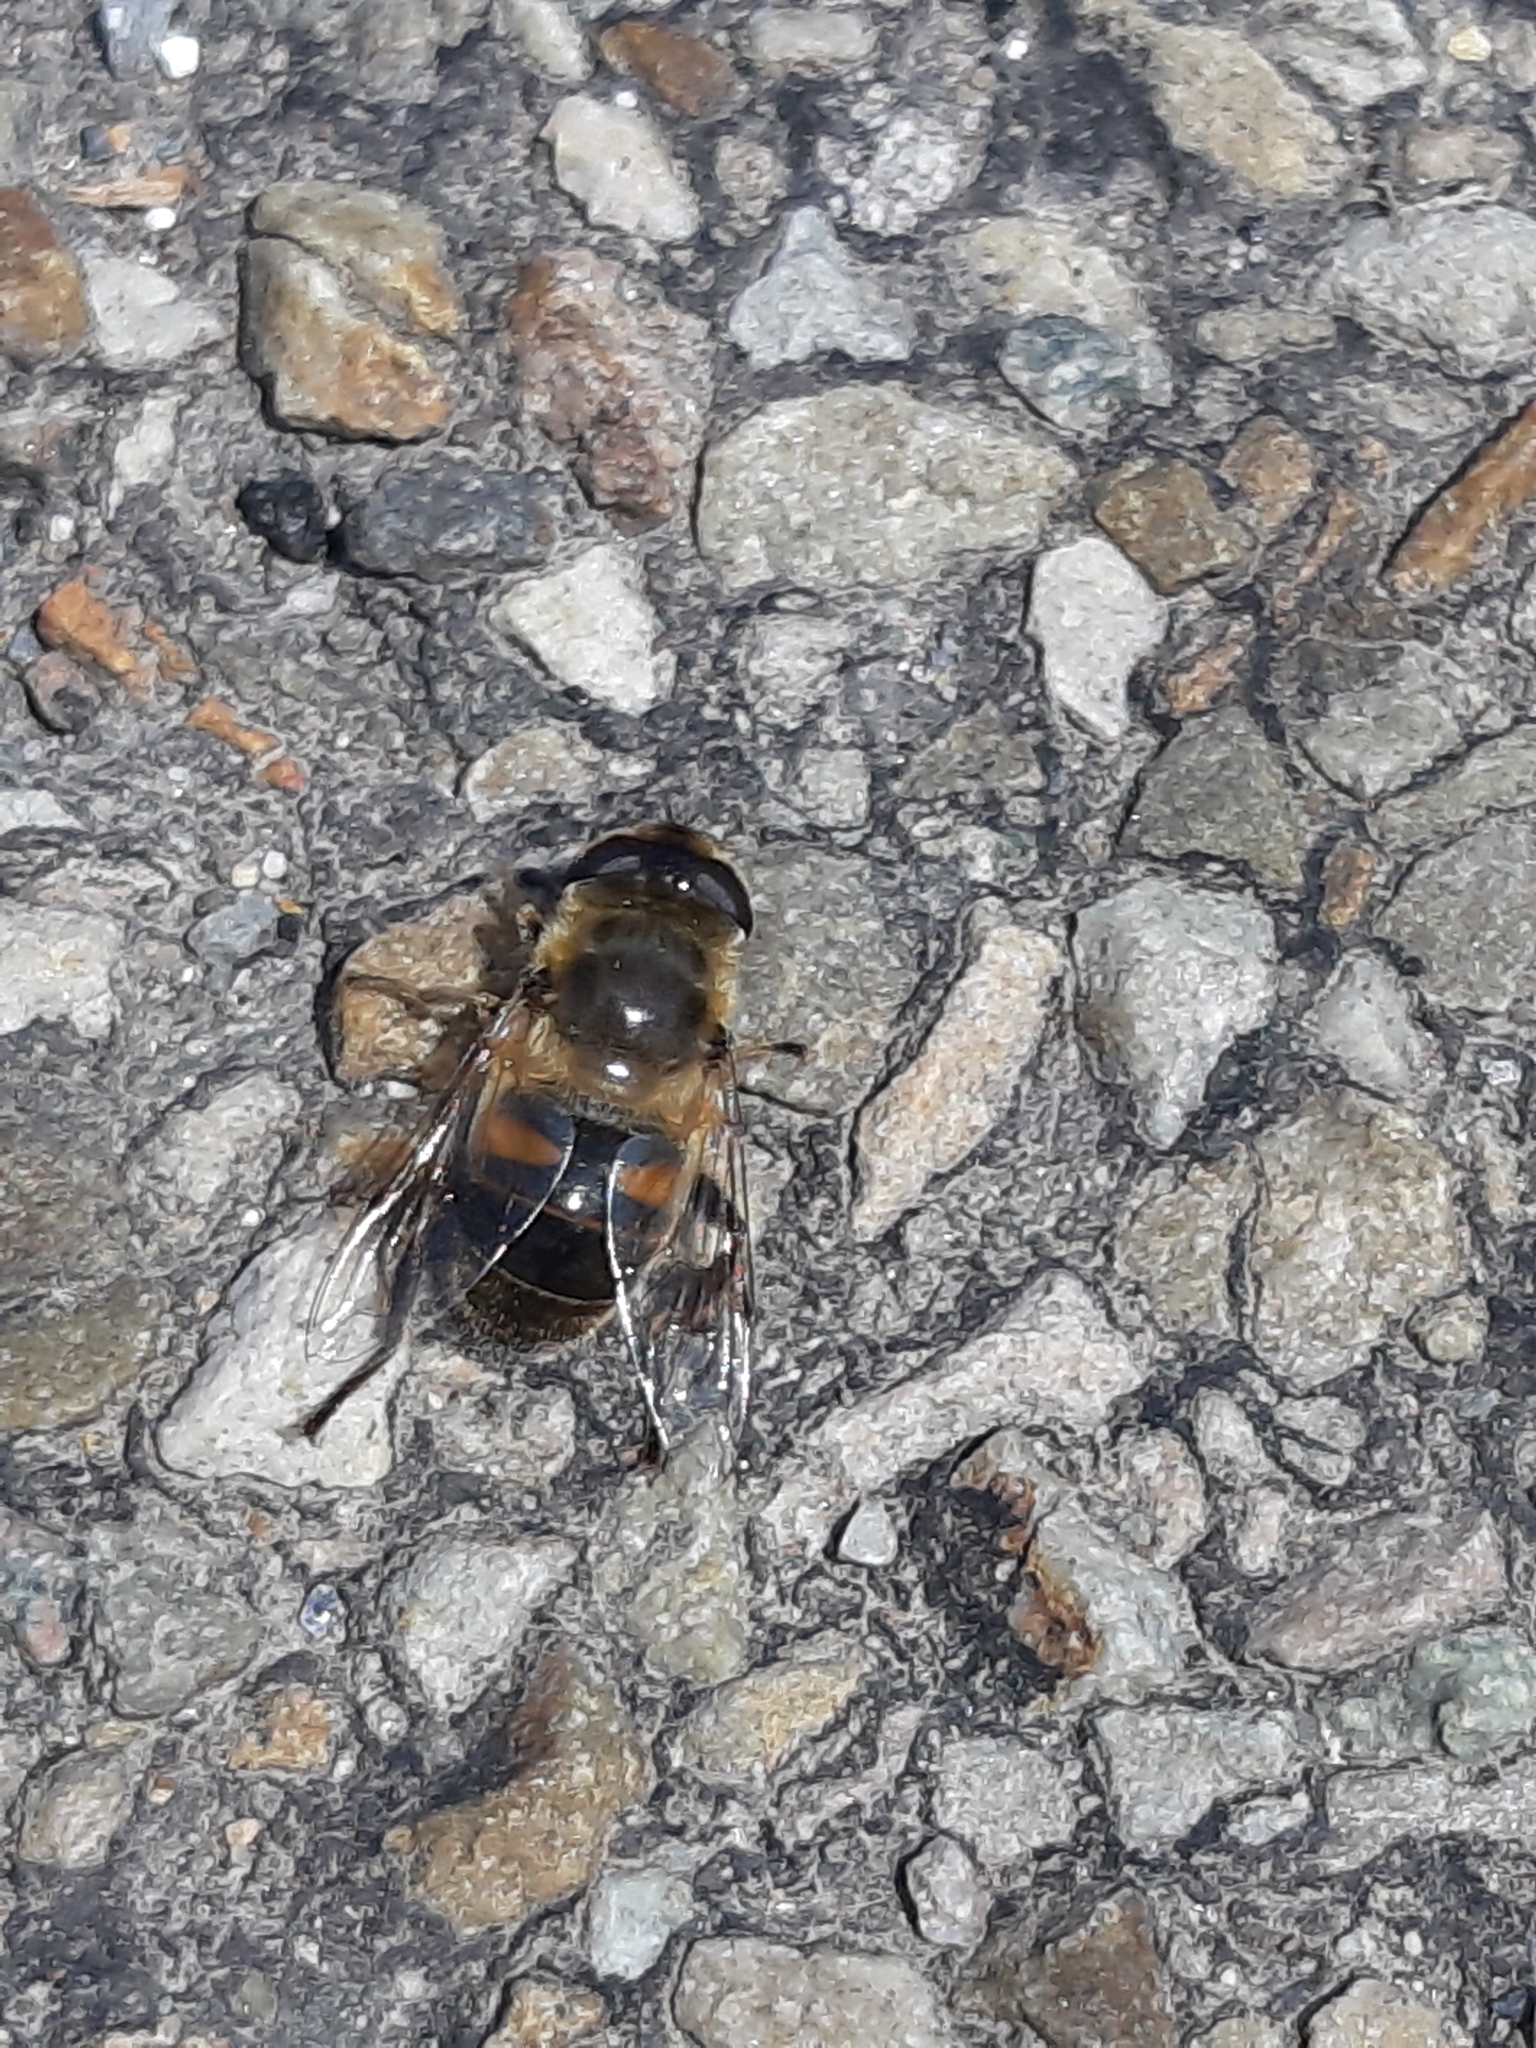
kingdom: Animalia
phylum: Arthropoda
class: Insecta
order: Diptera
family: Syrphidae
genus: Eristalis
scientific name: Eristalis tenax
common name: Drone fly
